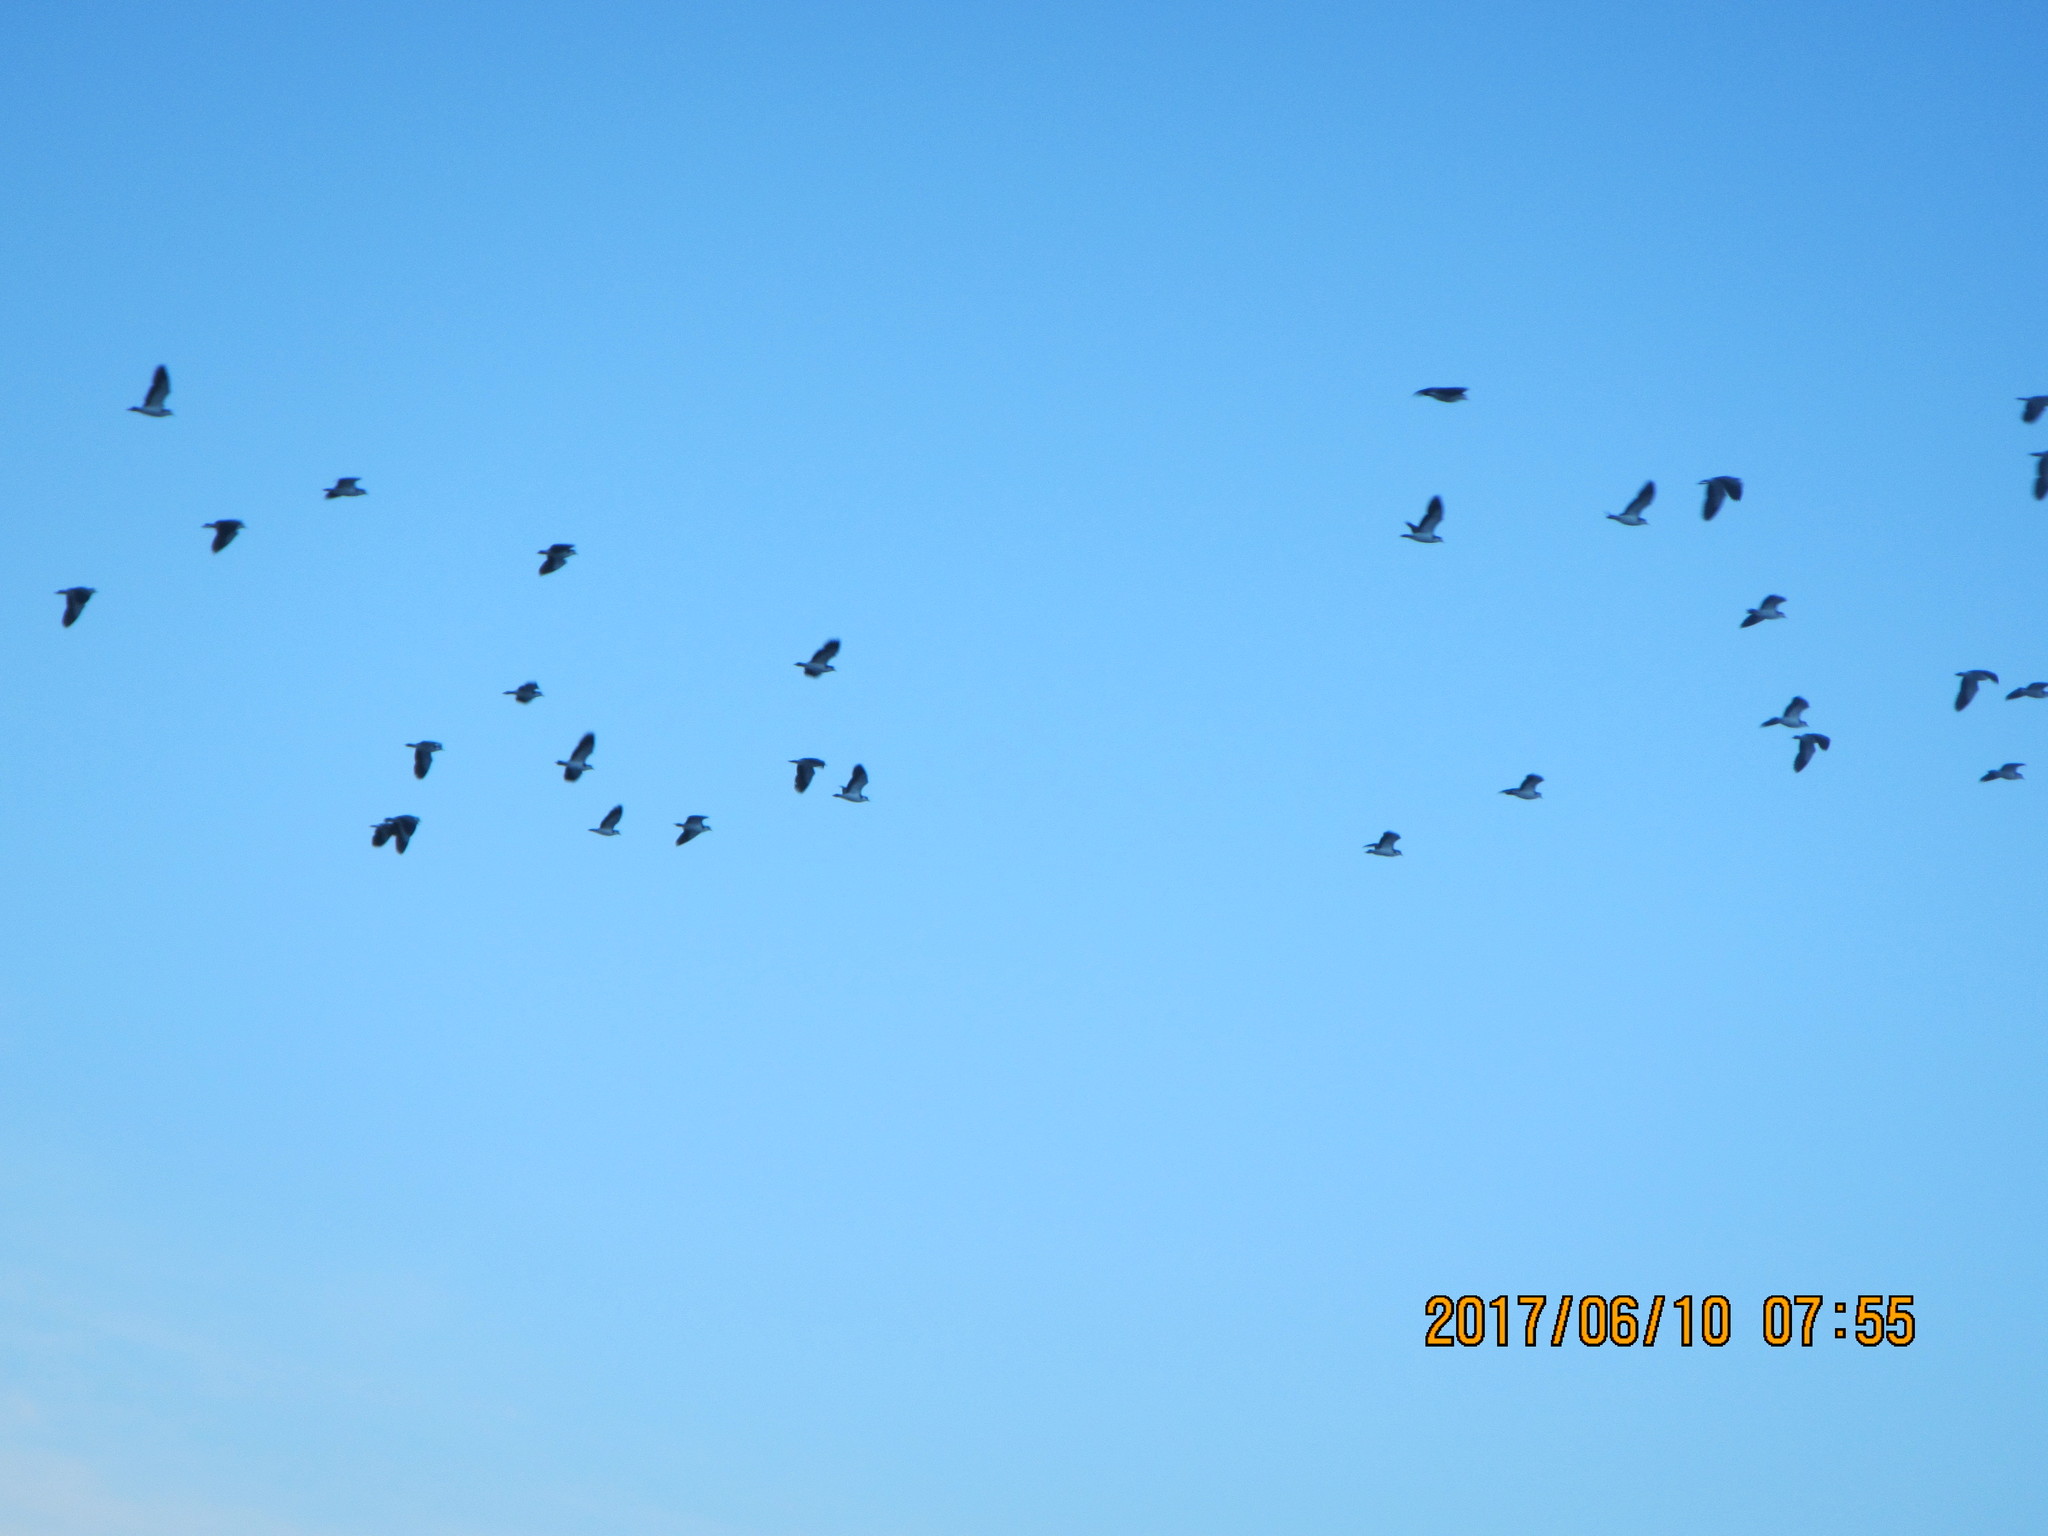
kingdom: Animalia
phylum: Chordata
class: Aves
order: Charadriiformes
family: Charadriidae
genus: Vanellus
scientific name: Vanellus miles
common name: Masked lapwing
